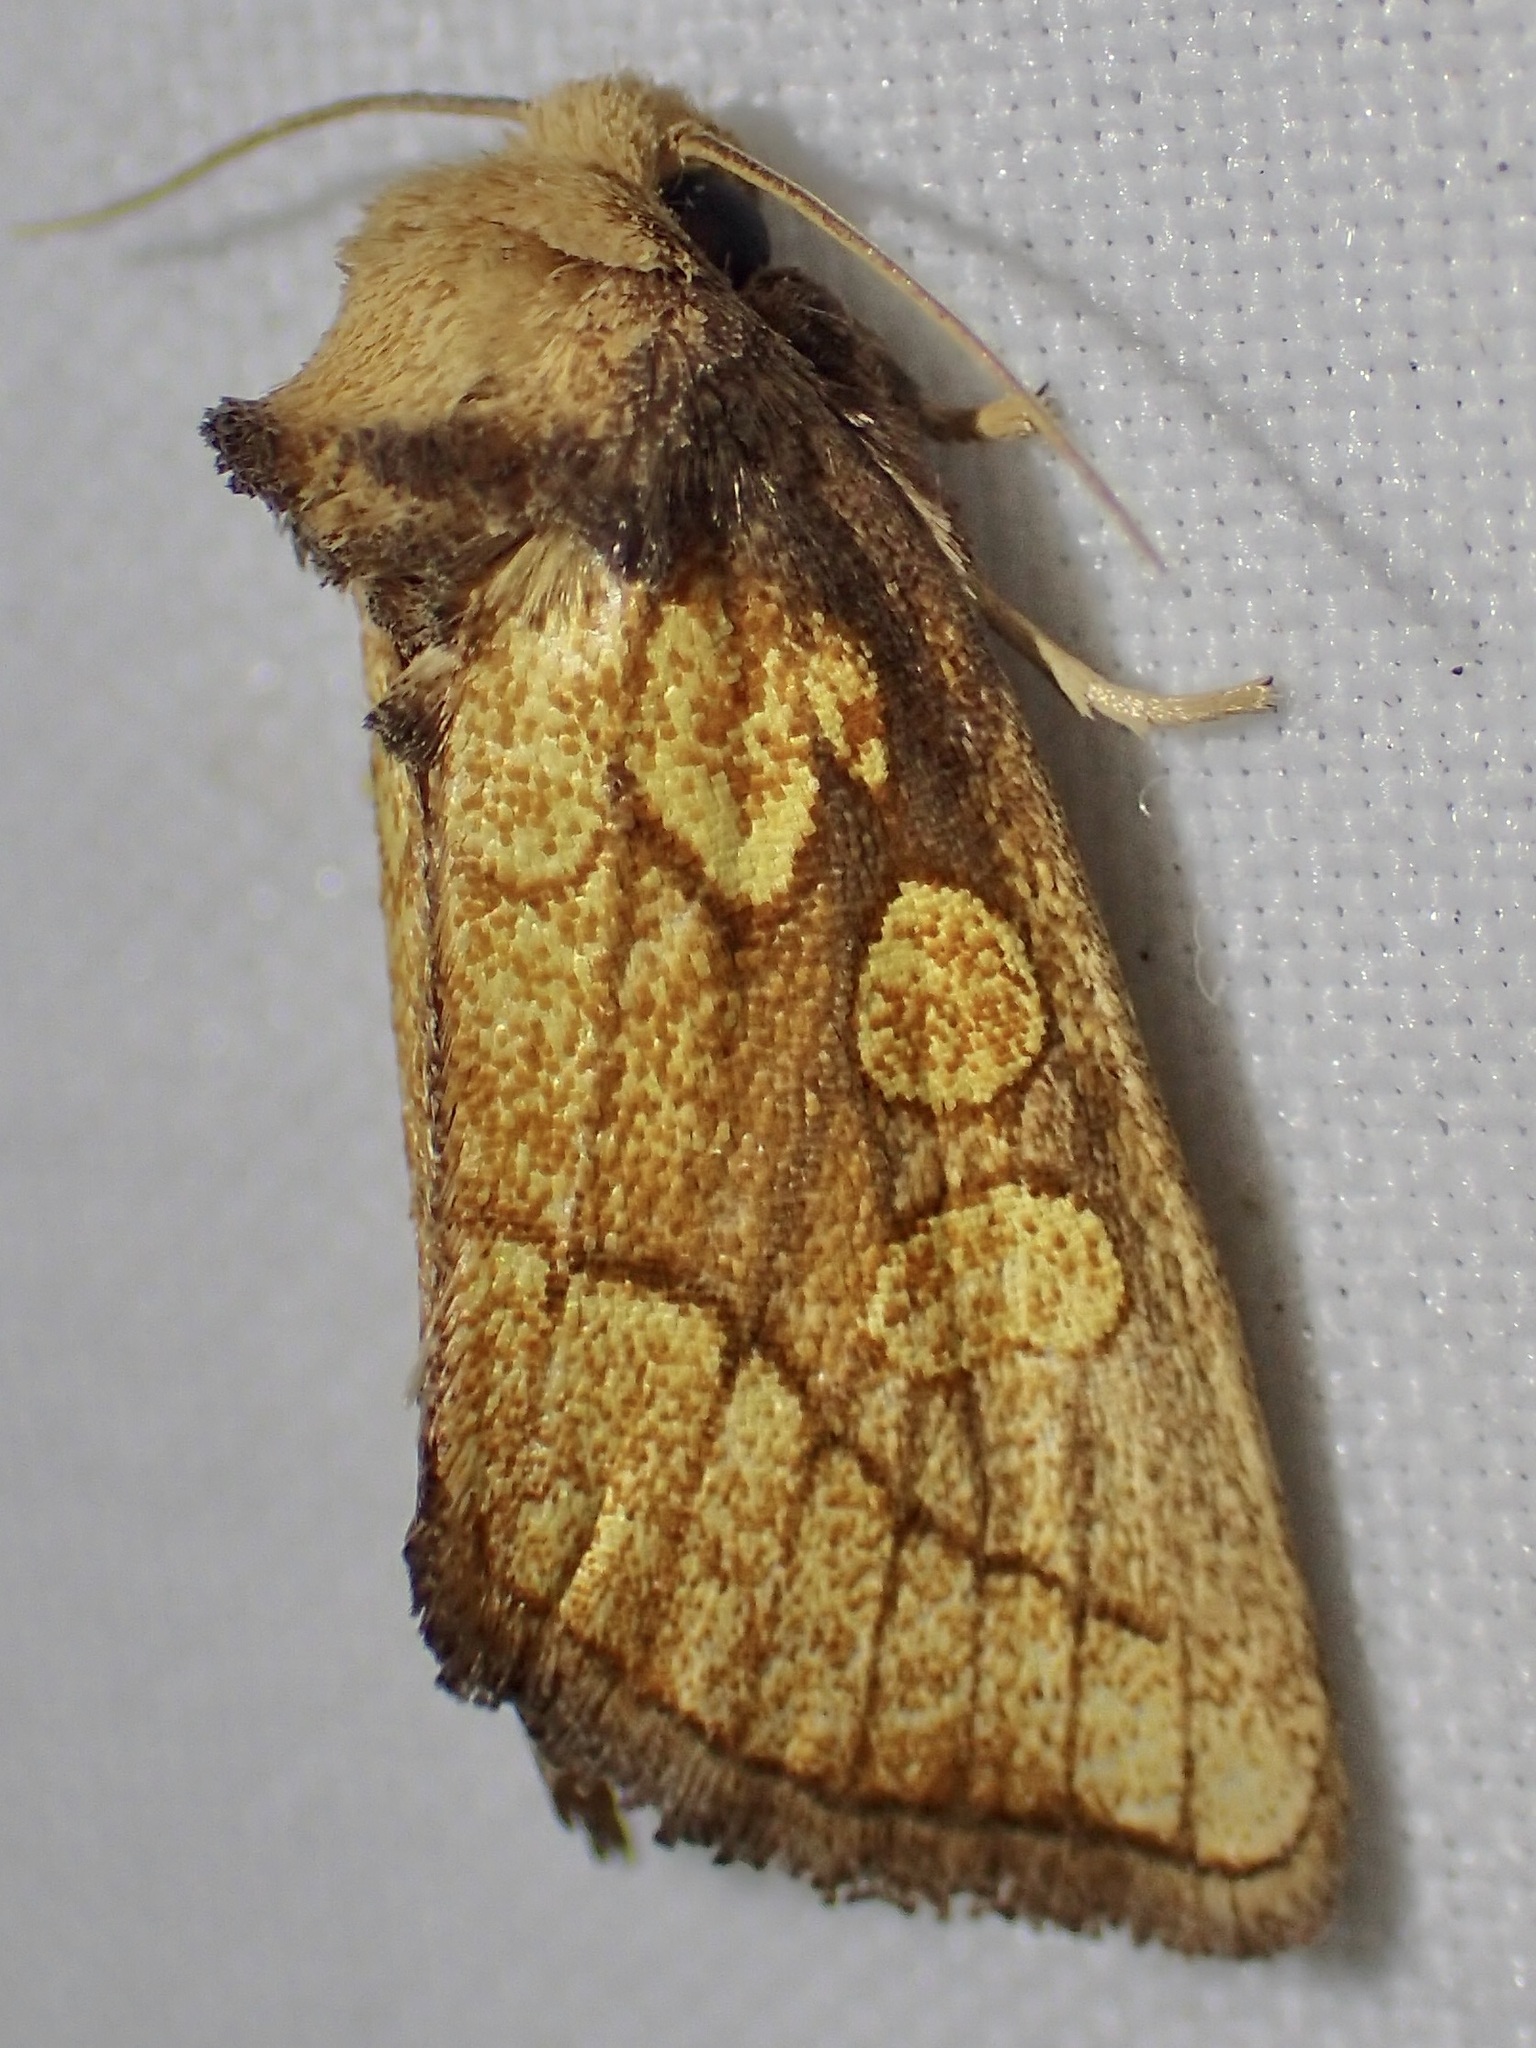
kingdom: Animalia
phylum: Arthropoda
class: Insecta
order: Lepidoptera
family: Noctuidae
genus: Nocloa
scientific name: Nocloa alcandra
